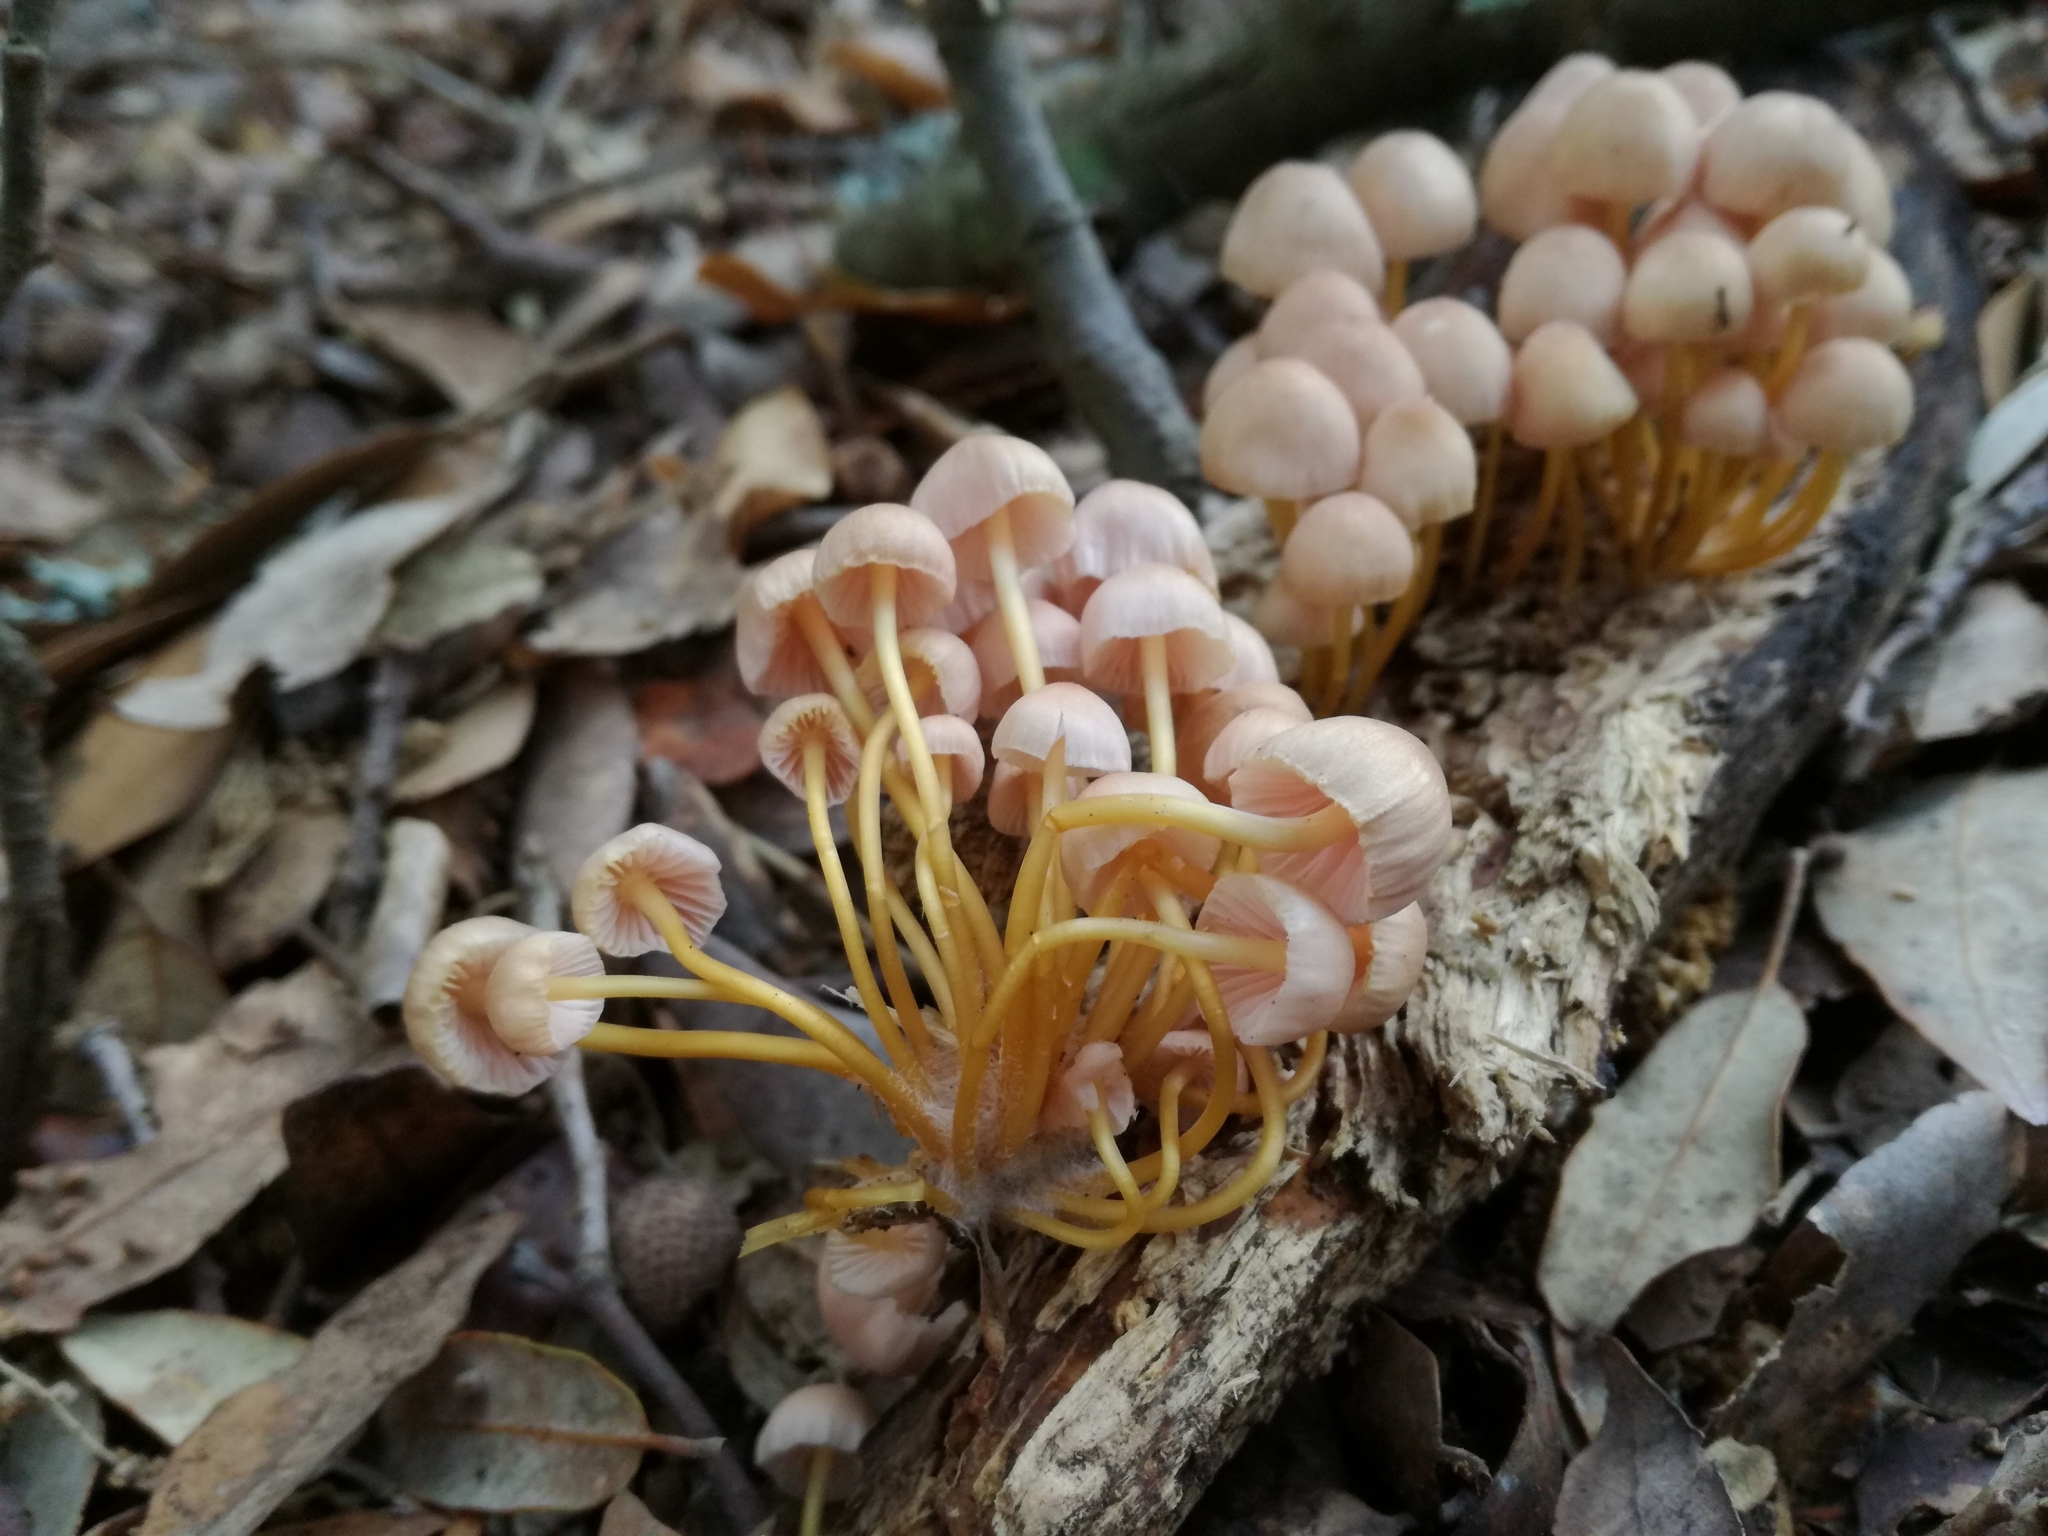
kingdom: Fungi
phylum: Basidiomycota
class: Agaricomycetes
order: Agaricales
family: Mycenaceae
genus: Mycena
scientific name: Mycena renati
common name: Beautiful bonnet
